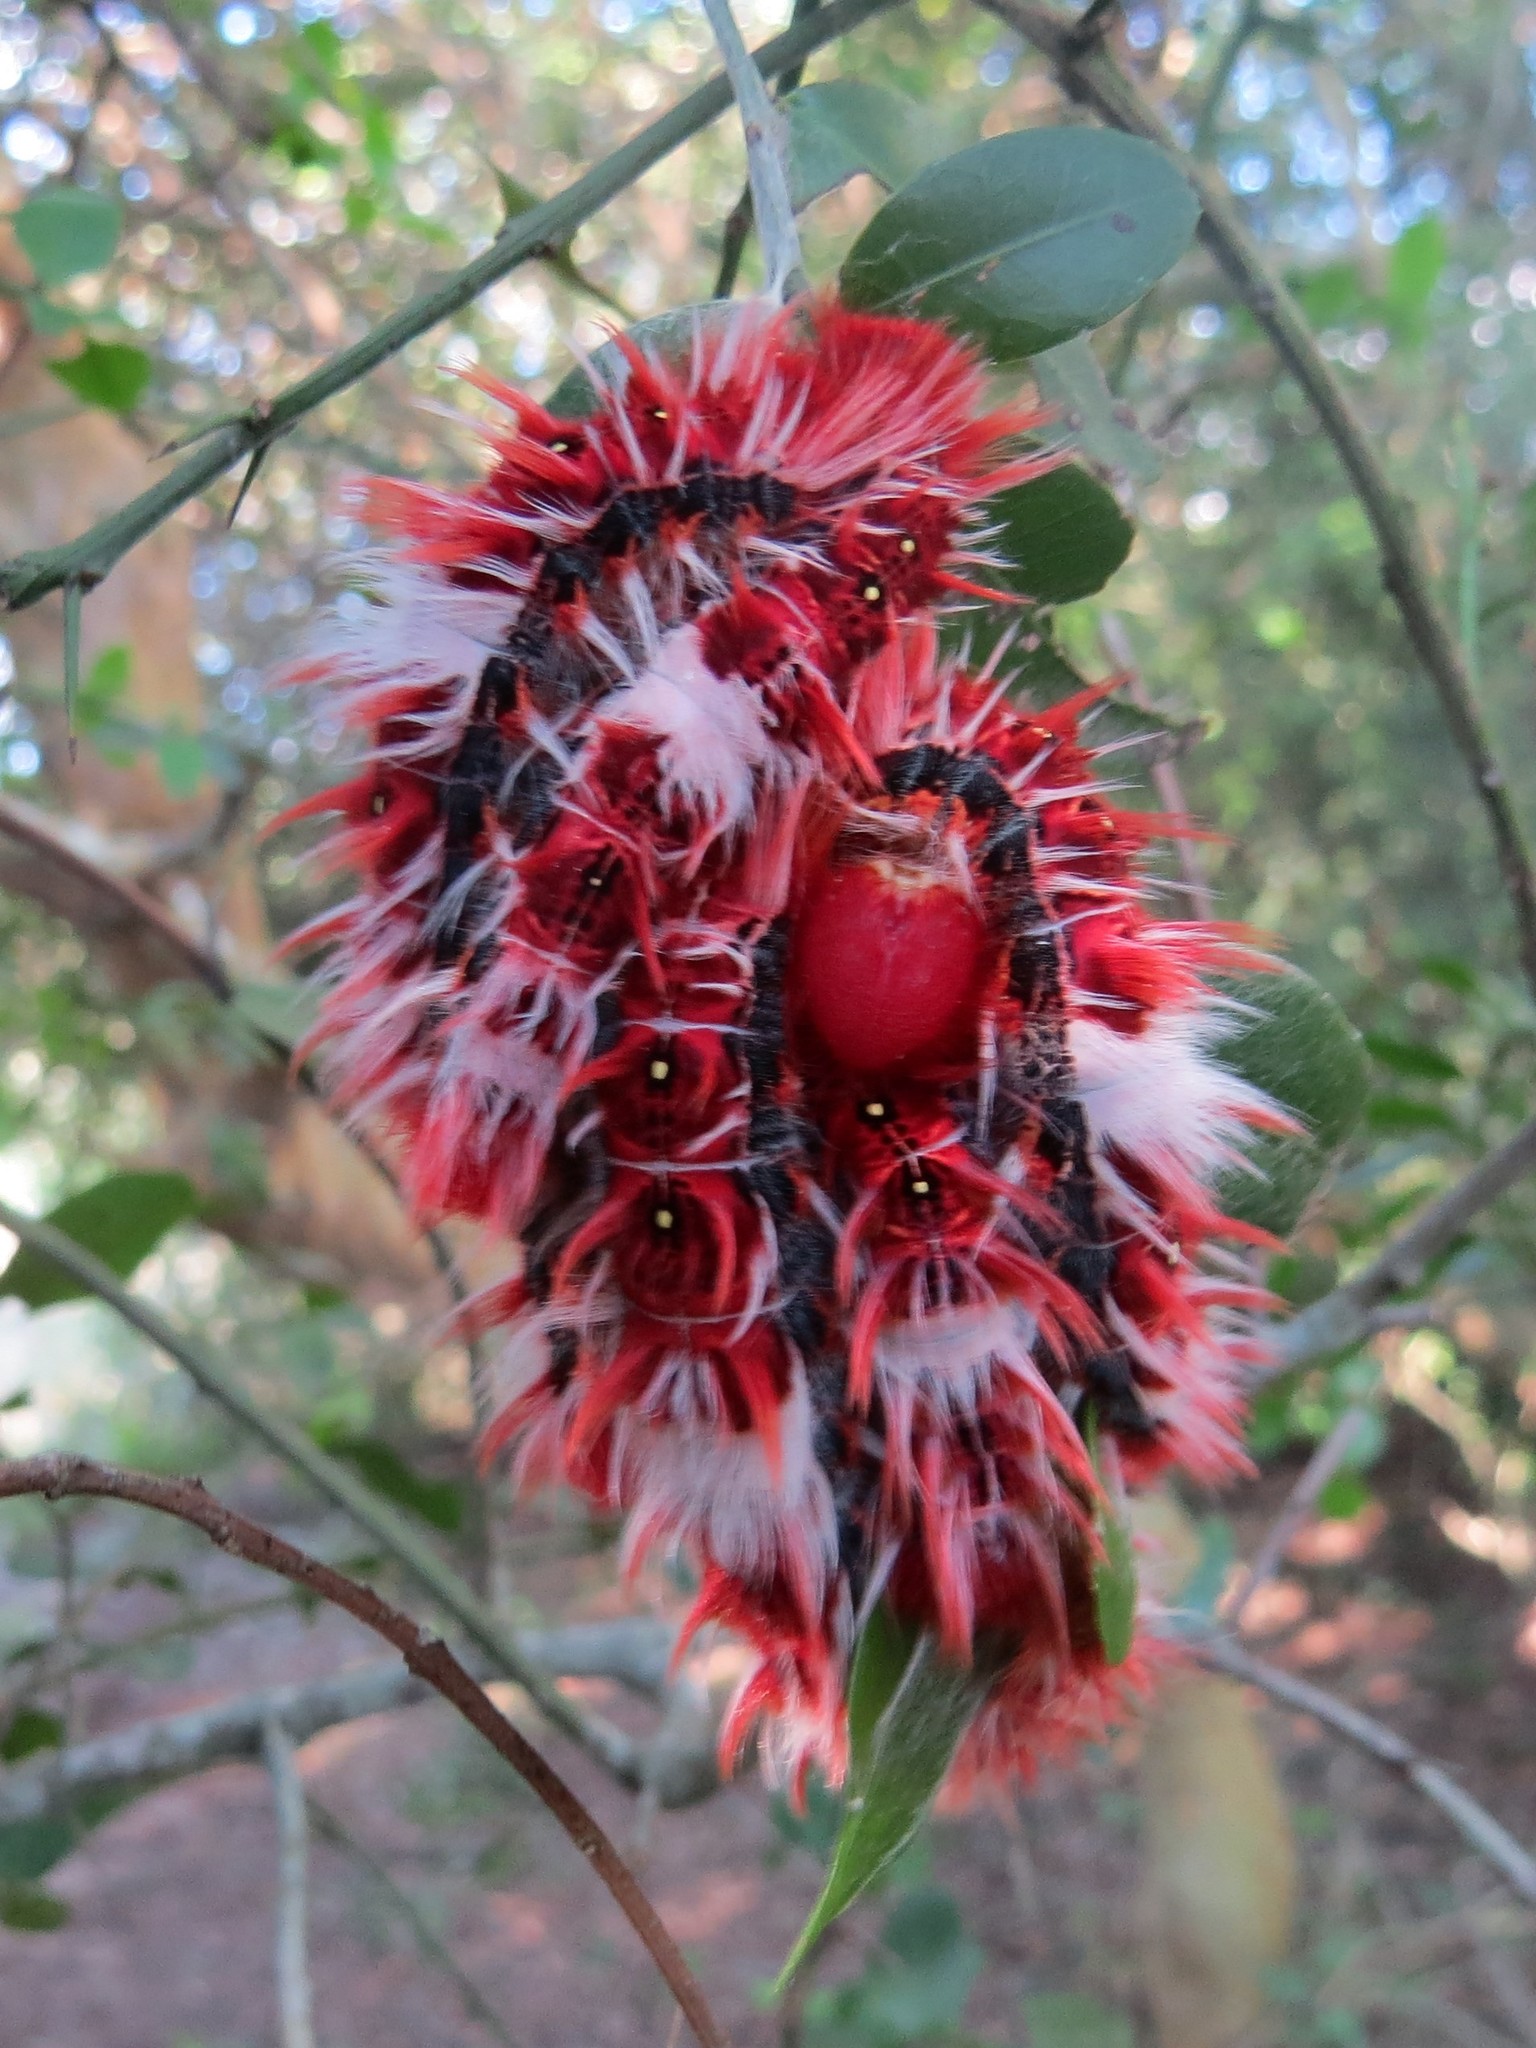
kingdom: Animalia
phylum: Arthropoda
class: Insecta
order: Lepidoptera
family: Nymphalidae
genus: Morpho
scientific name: Morpho epistrophus
